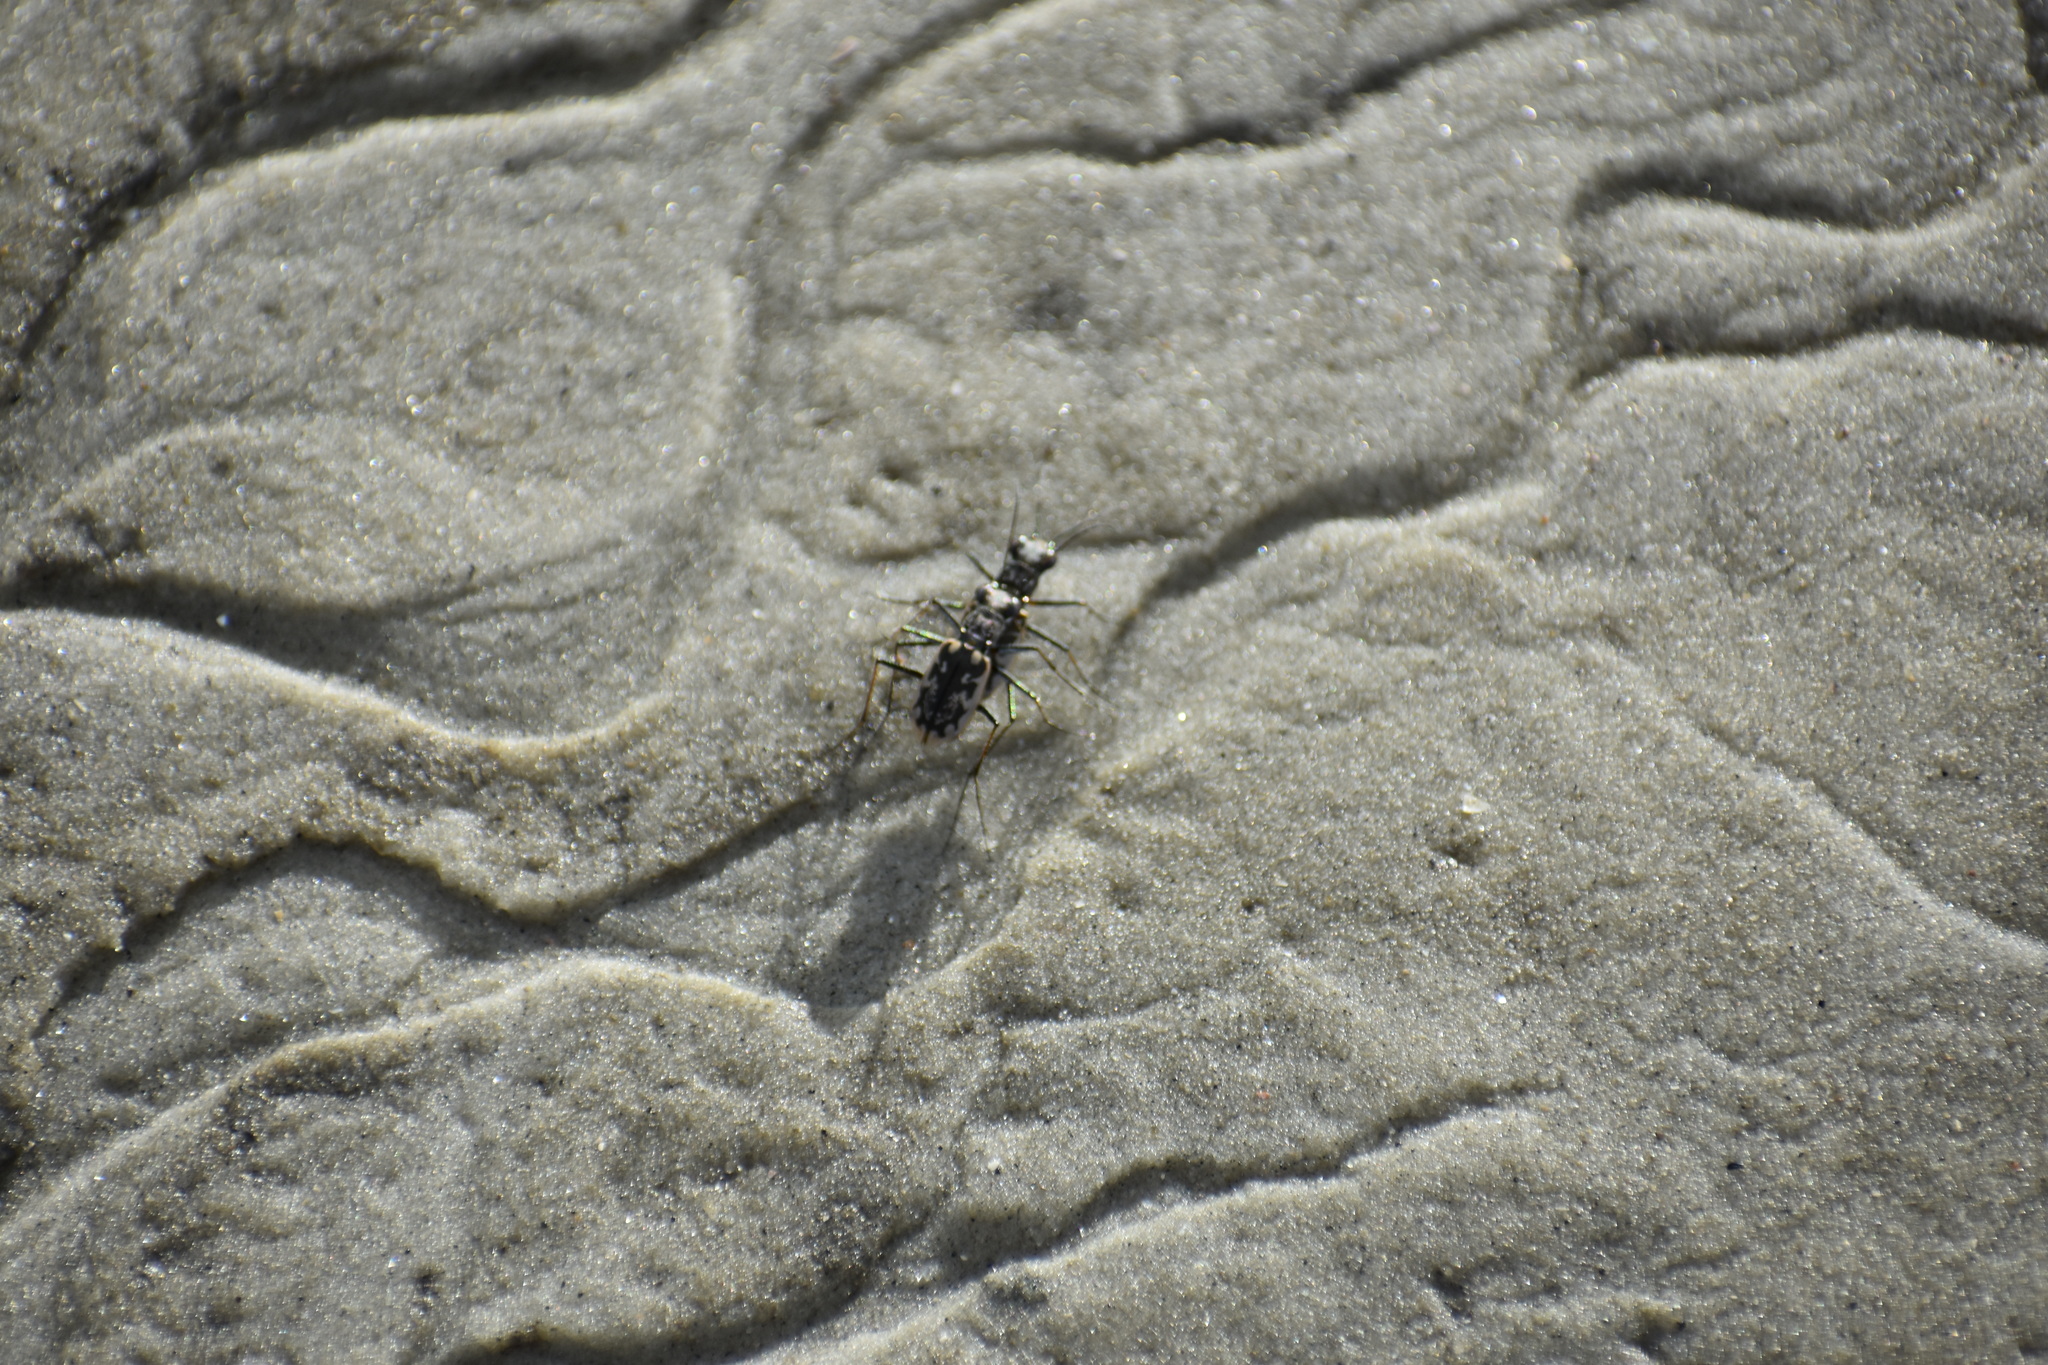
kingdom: Animalia
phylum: Arthropoda
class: Insecta
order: Coleoptera
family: Carabidae
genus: Ellipsoptera
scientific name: Ellipsoptera marginata
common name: Margined tiger beetle
